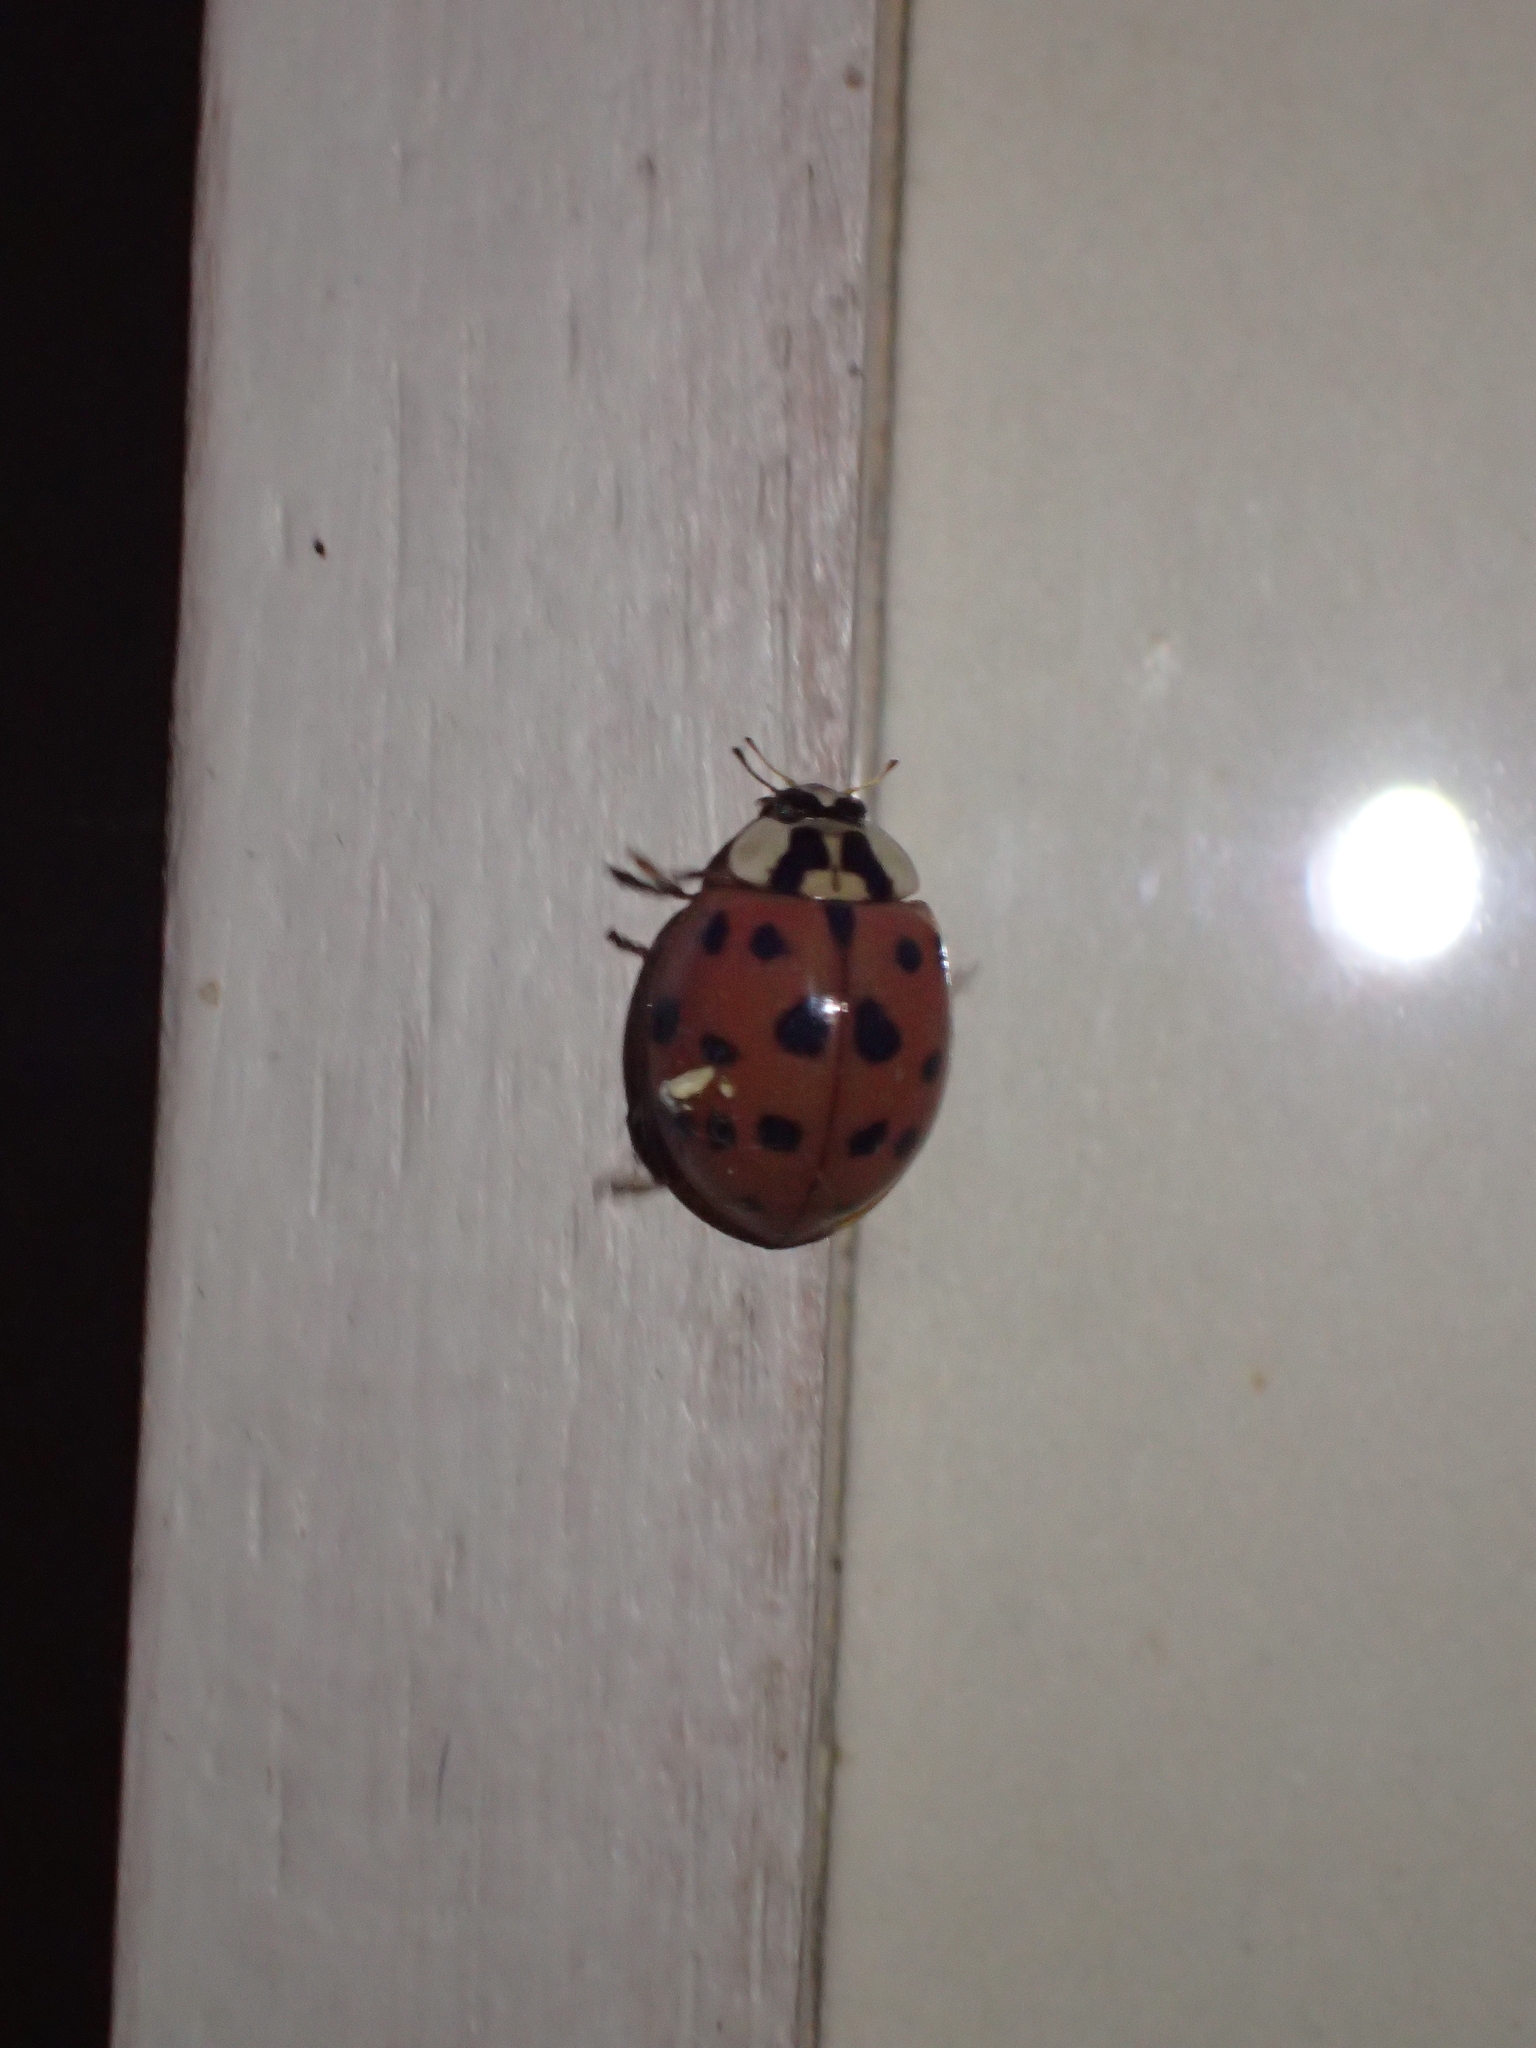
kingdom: Animalia
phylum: Arthropoda
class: Insecta
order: Coleoptera
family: Coccinellidae
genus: Harmonia
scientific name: Harmonia axyridis
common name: Harlequin ladybird
